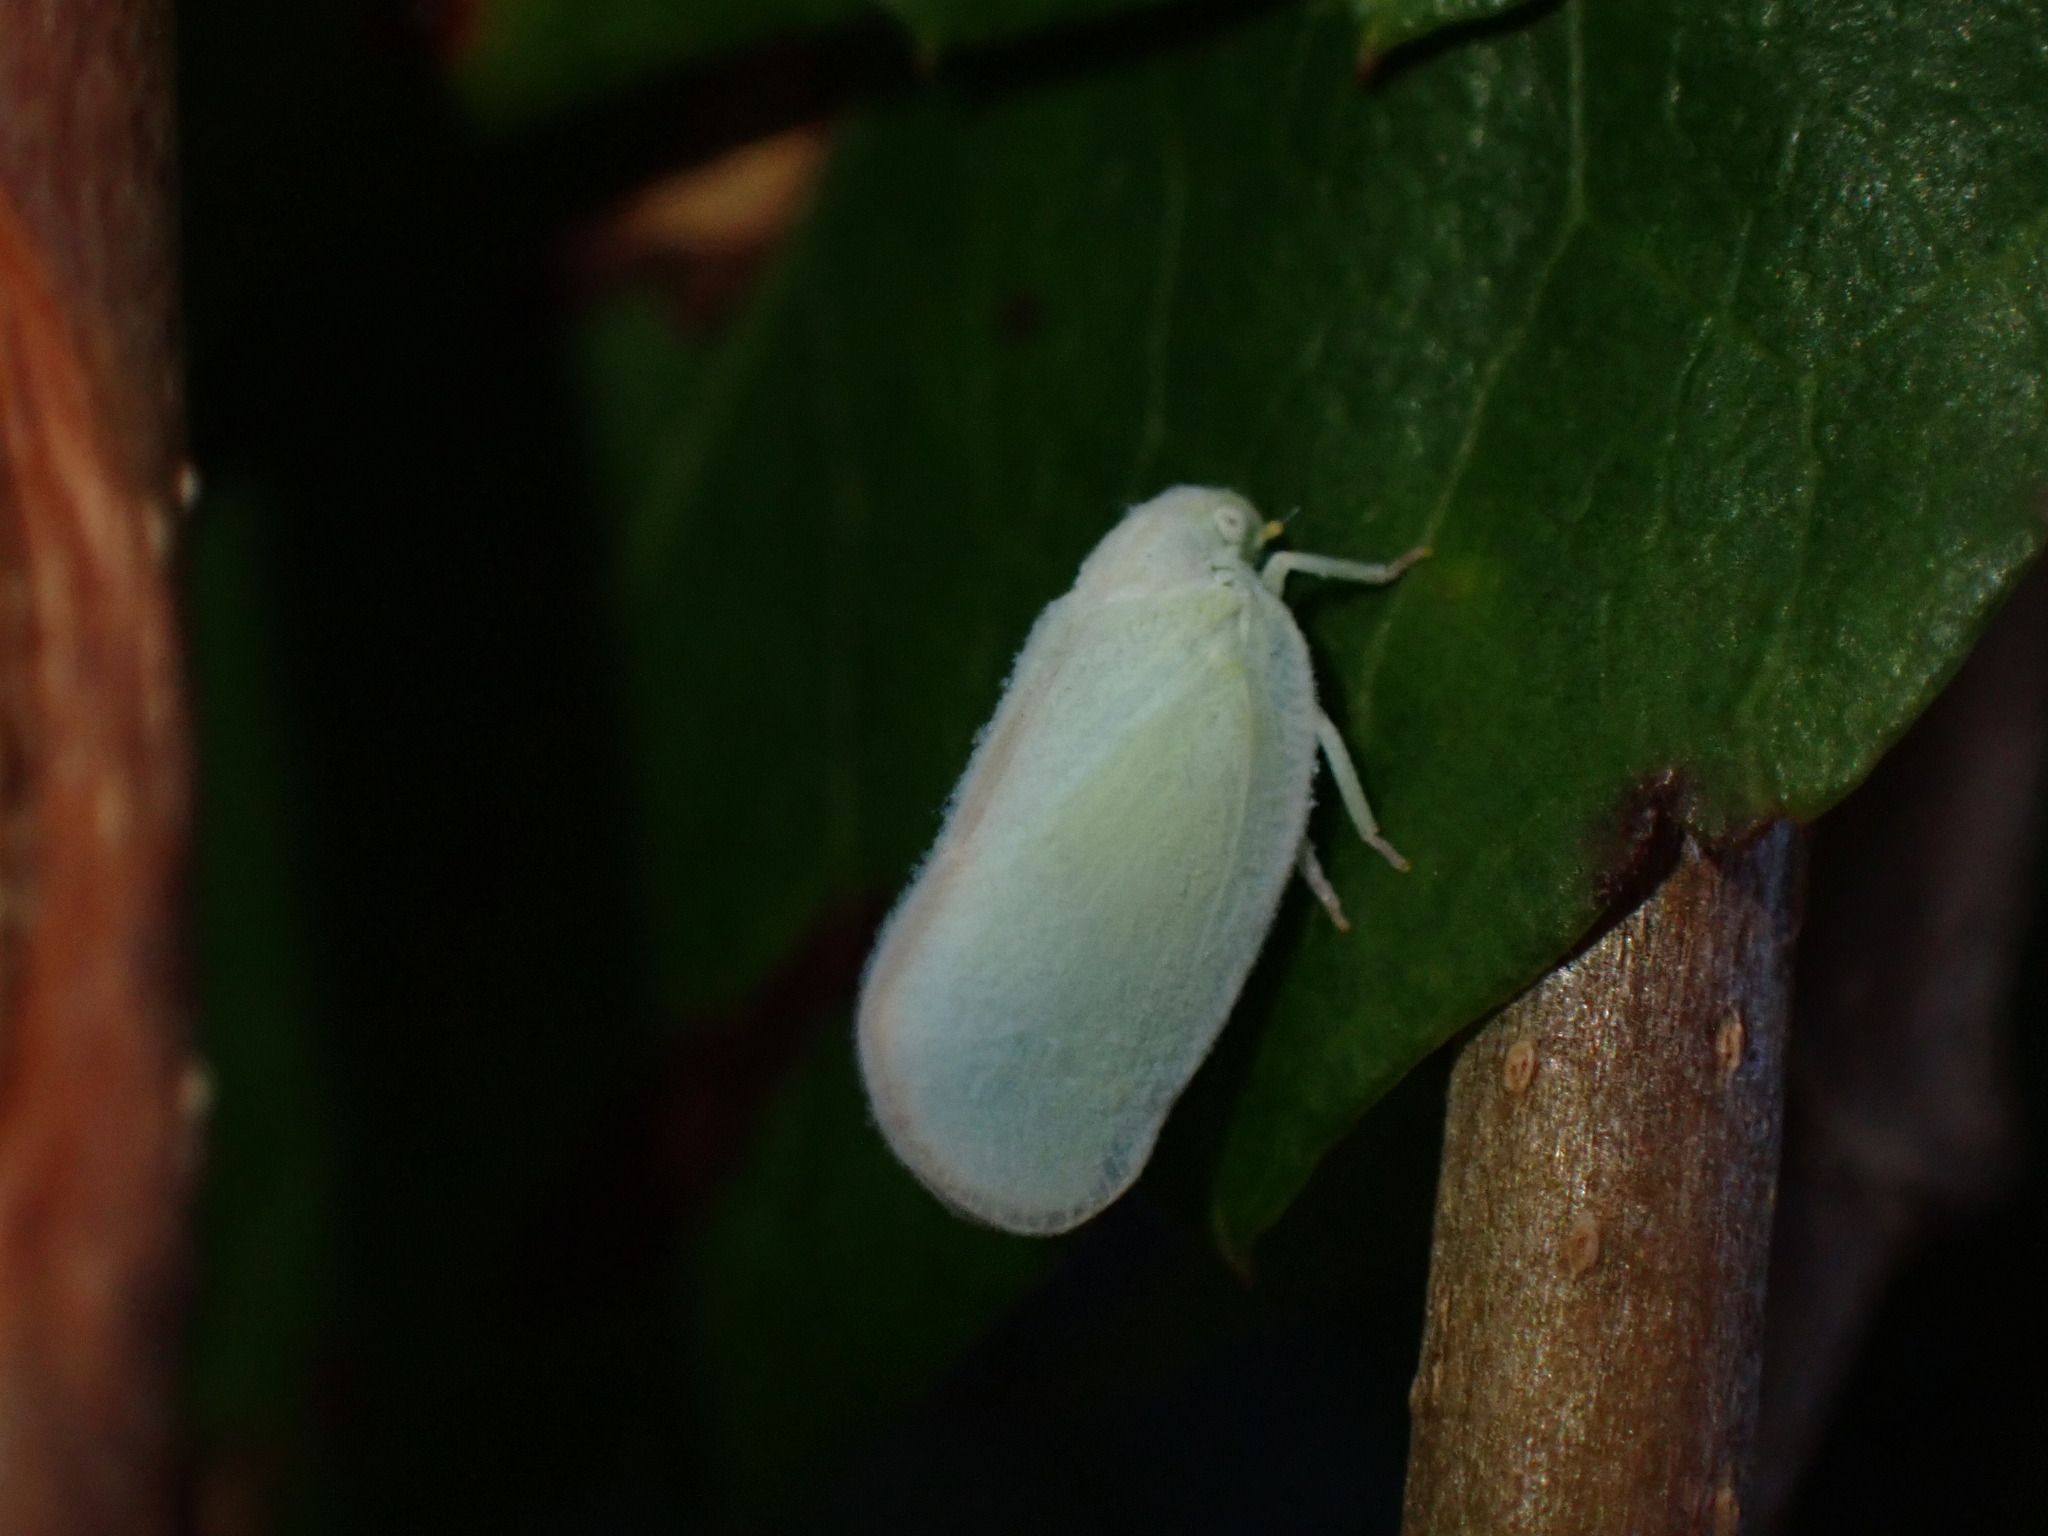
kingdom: Animalia
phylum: Arthropoda
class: Insecta
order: Hemiptera
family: Flatidae
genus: Ormenoides
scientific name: Ormenoides venusta
